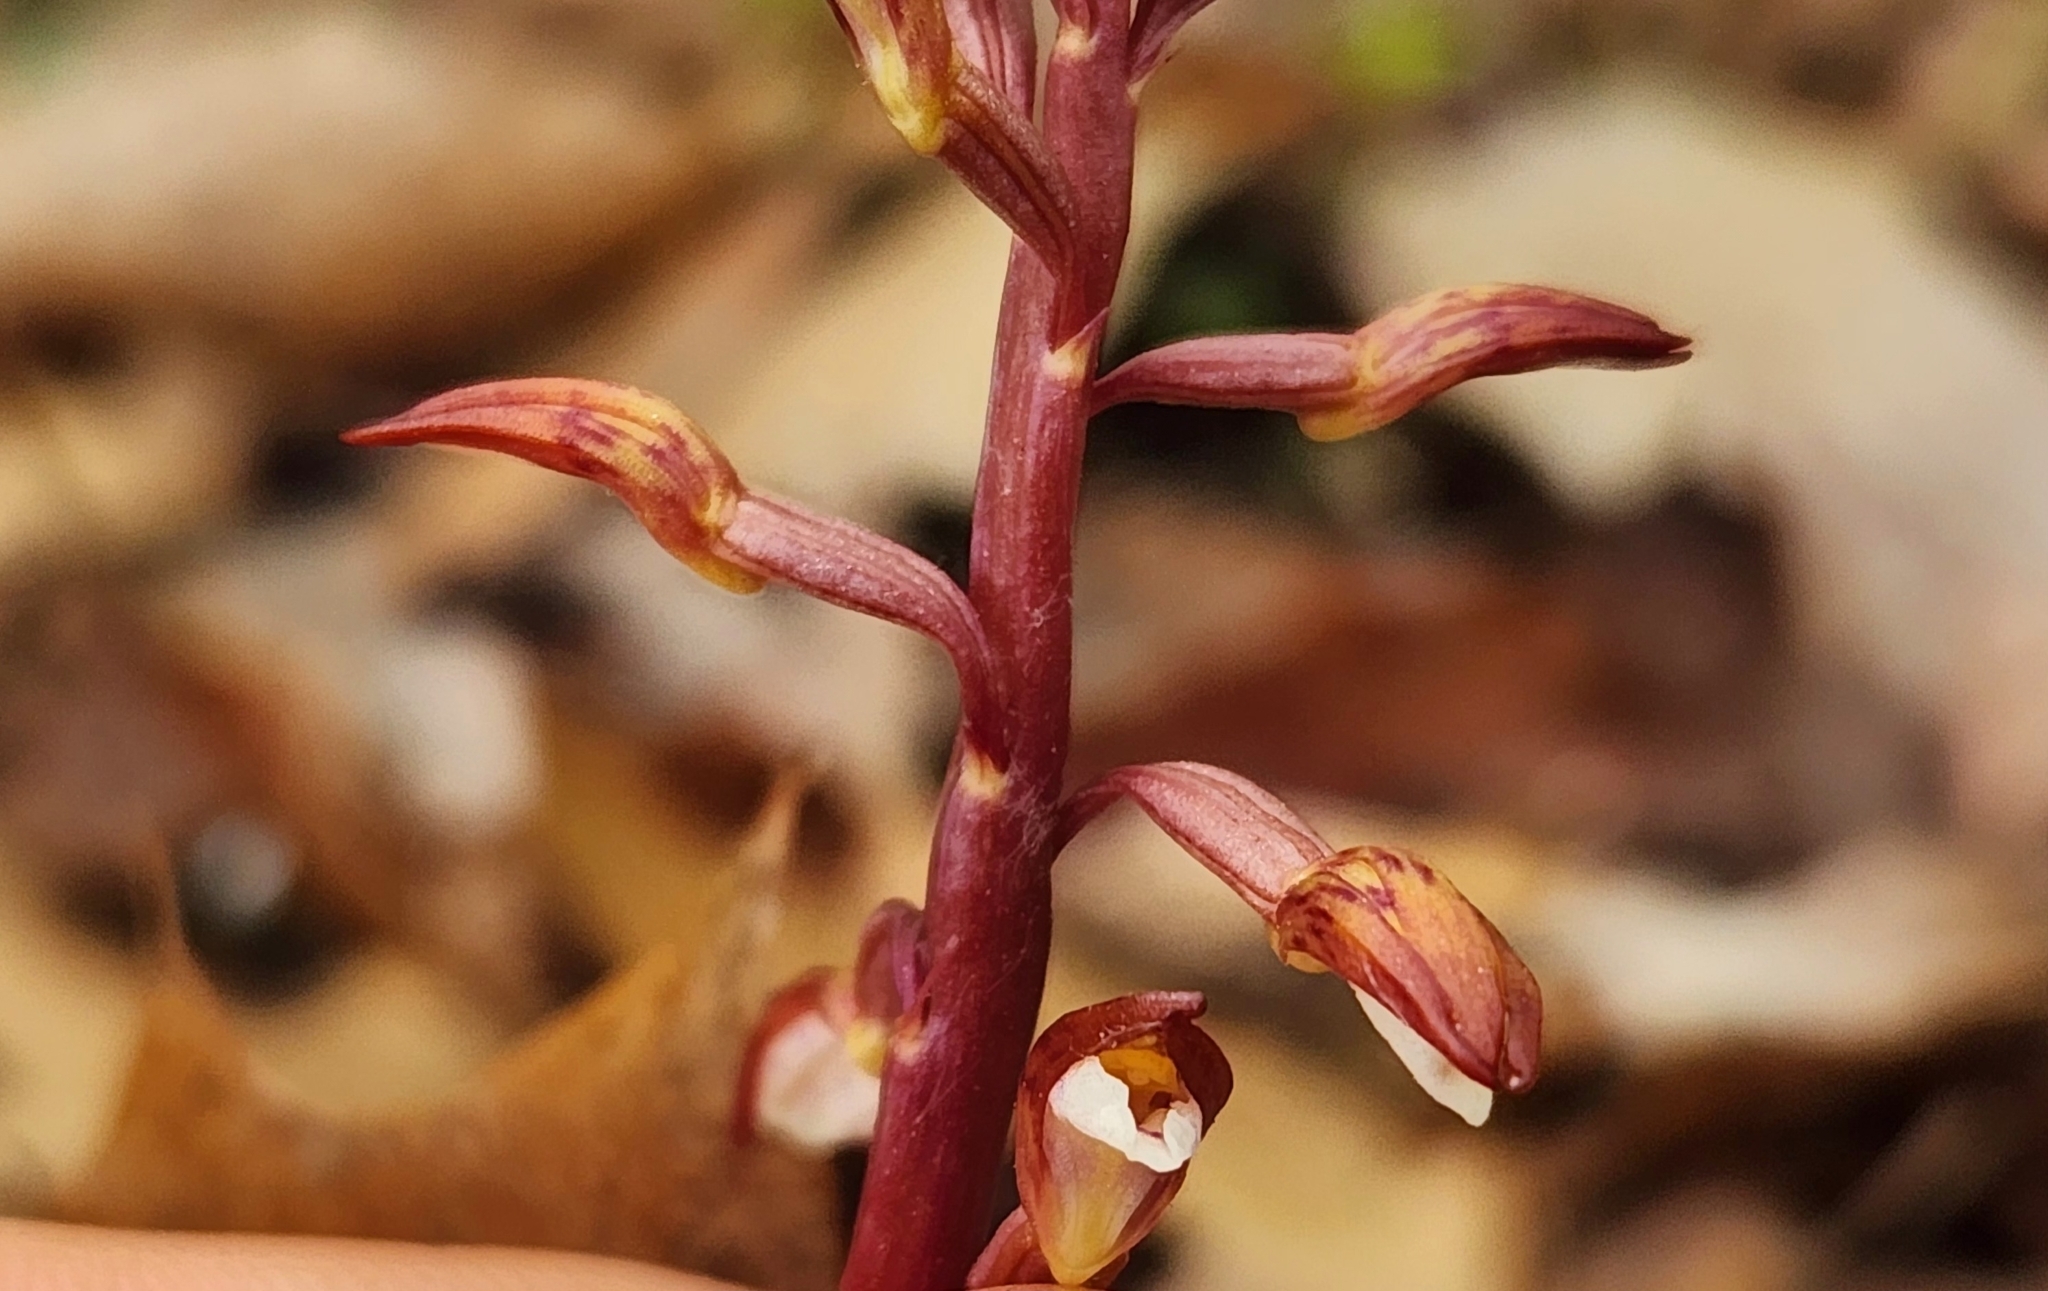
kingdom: Plantae
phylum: Tracheophyta
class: Liliopsida
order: Asparagales
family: Orchidaceae
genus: Corallorhiza
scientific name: Corallorhiza wisteriana
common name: Spring coralroot
